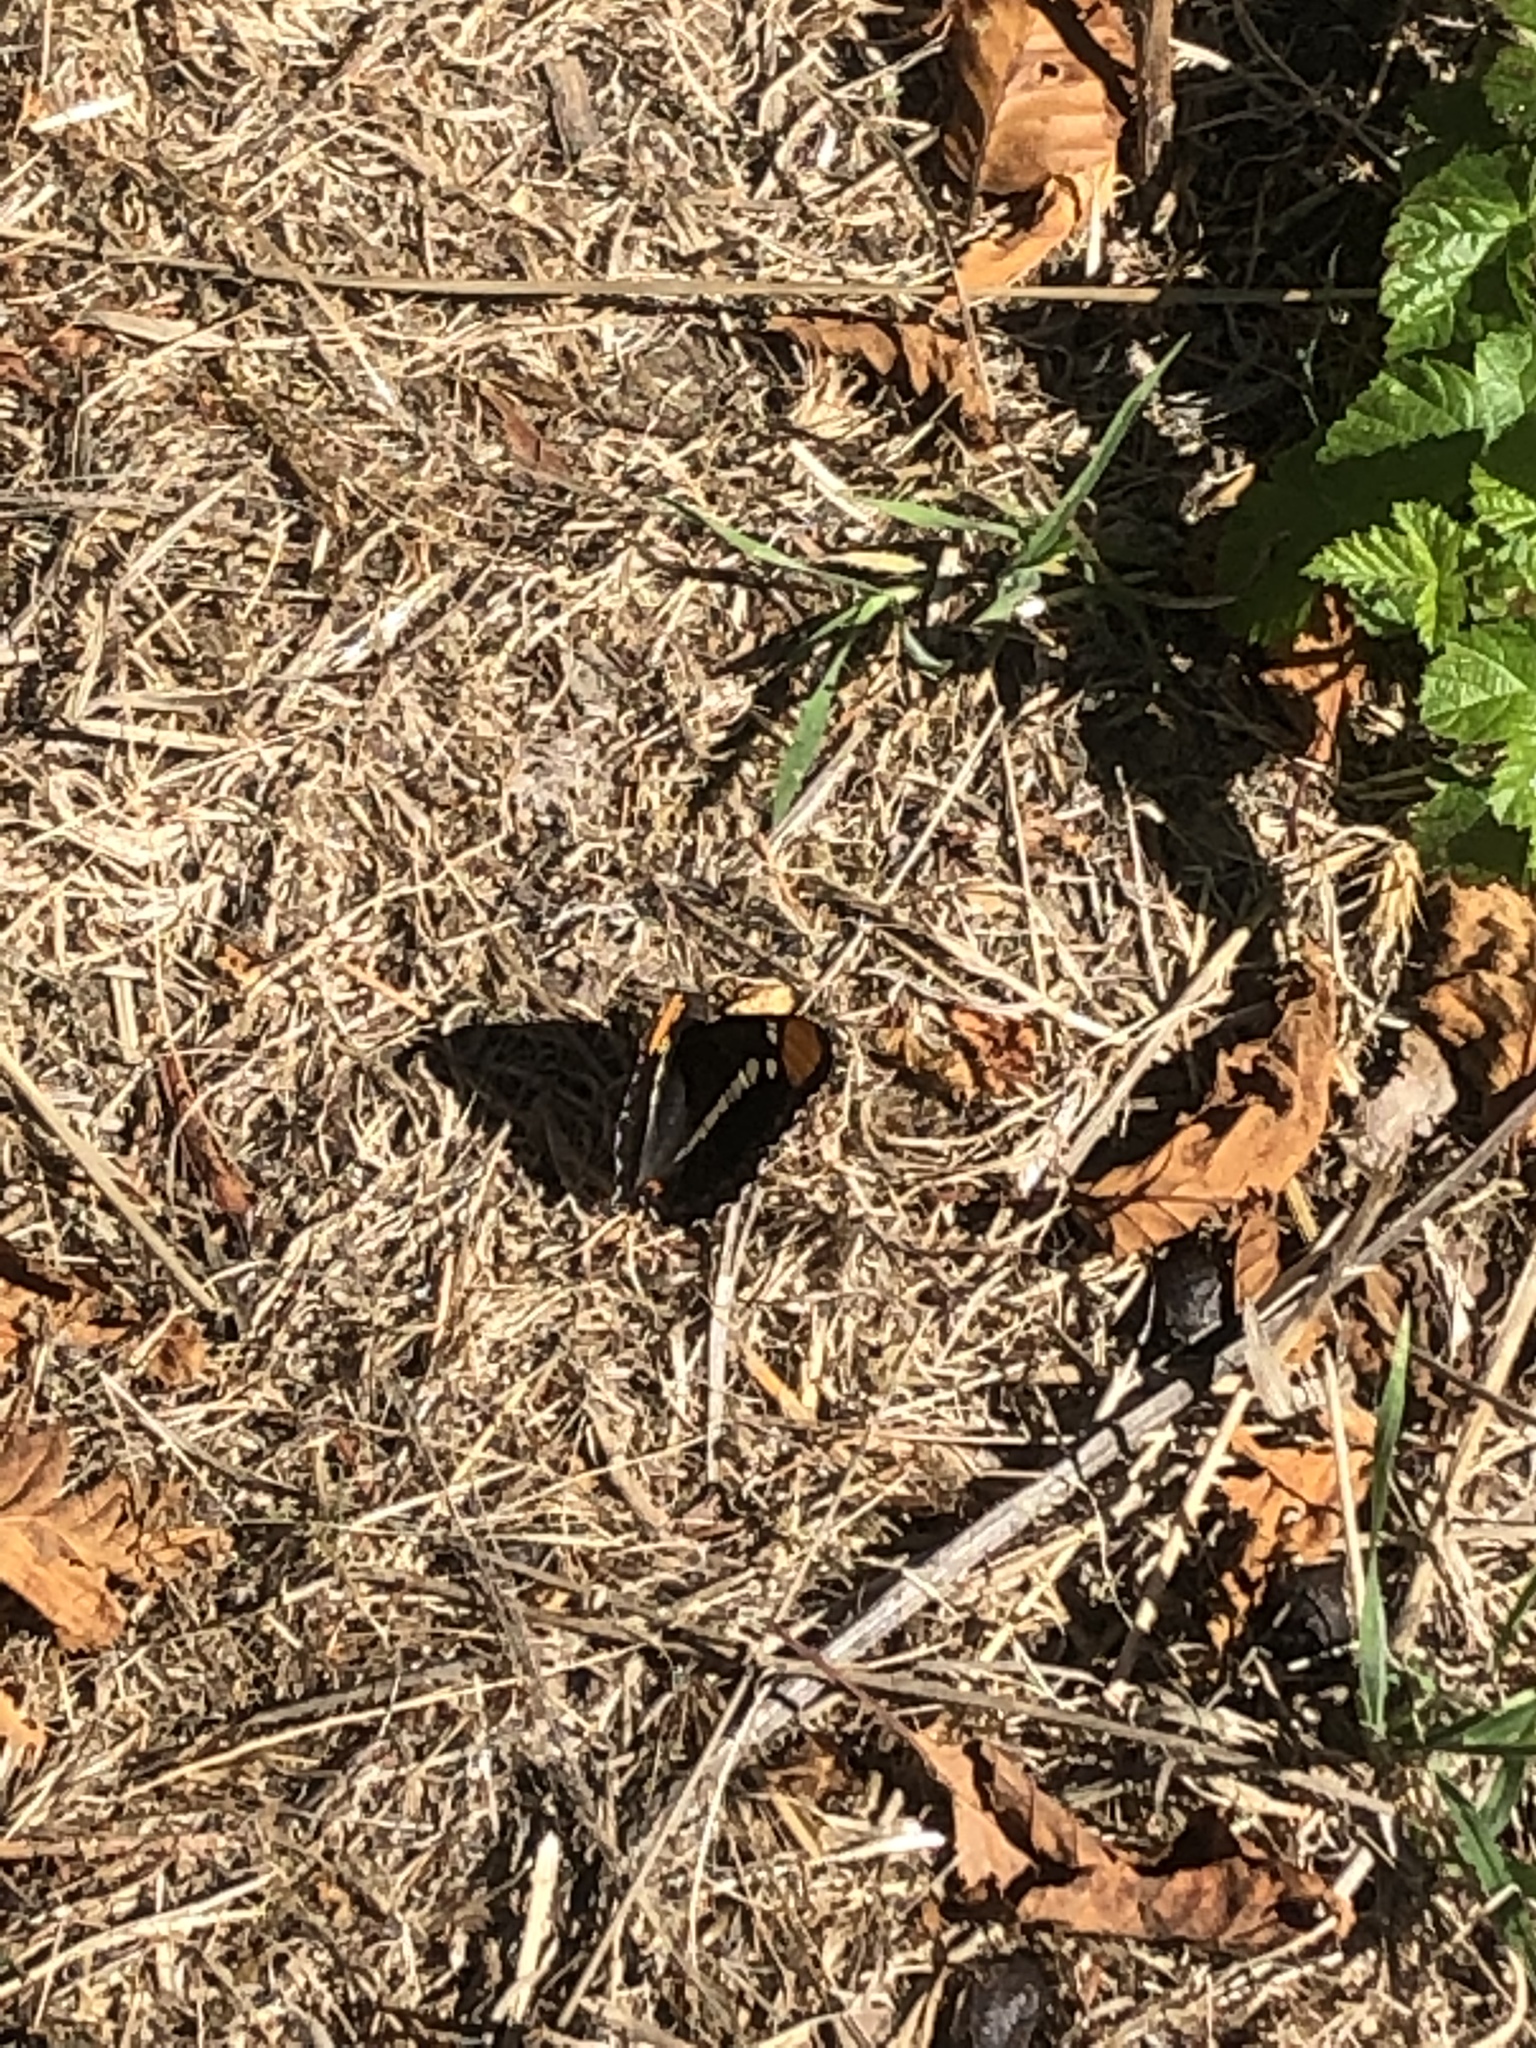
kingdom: Animalia
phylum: Arthropoda
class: Insecta
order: Lepidoptera
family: Nymphalidae
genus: Limenitis
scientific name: Limenitis bredowii
